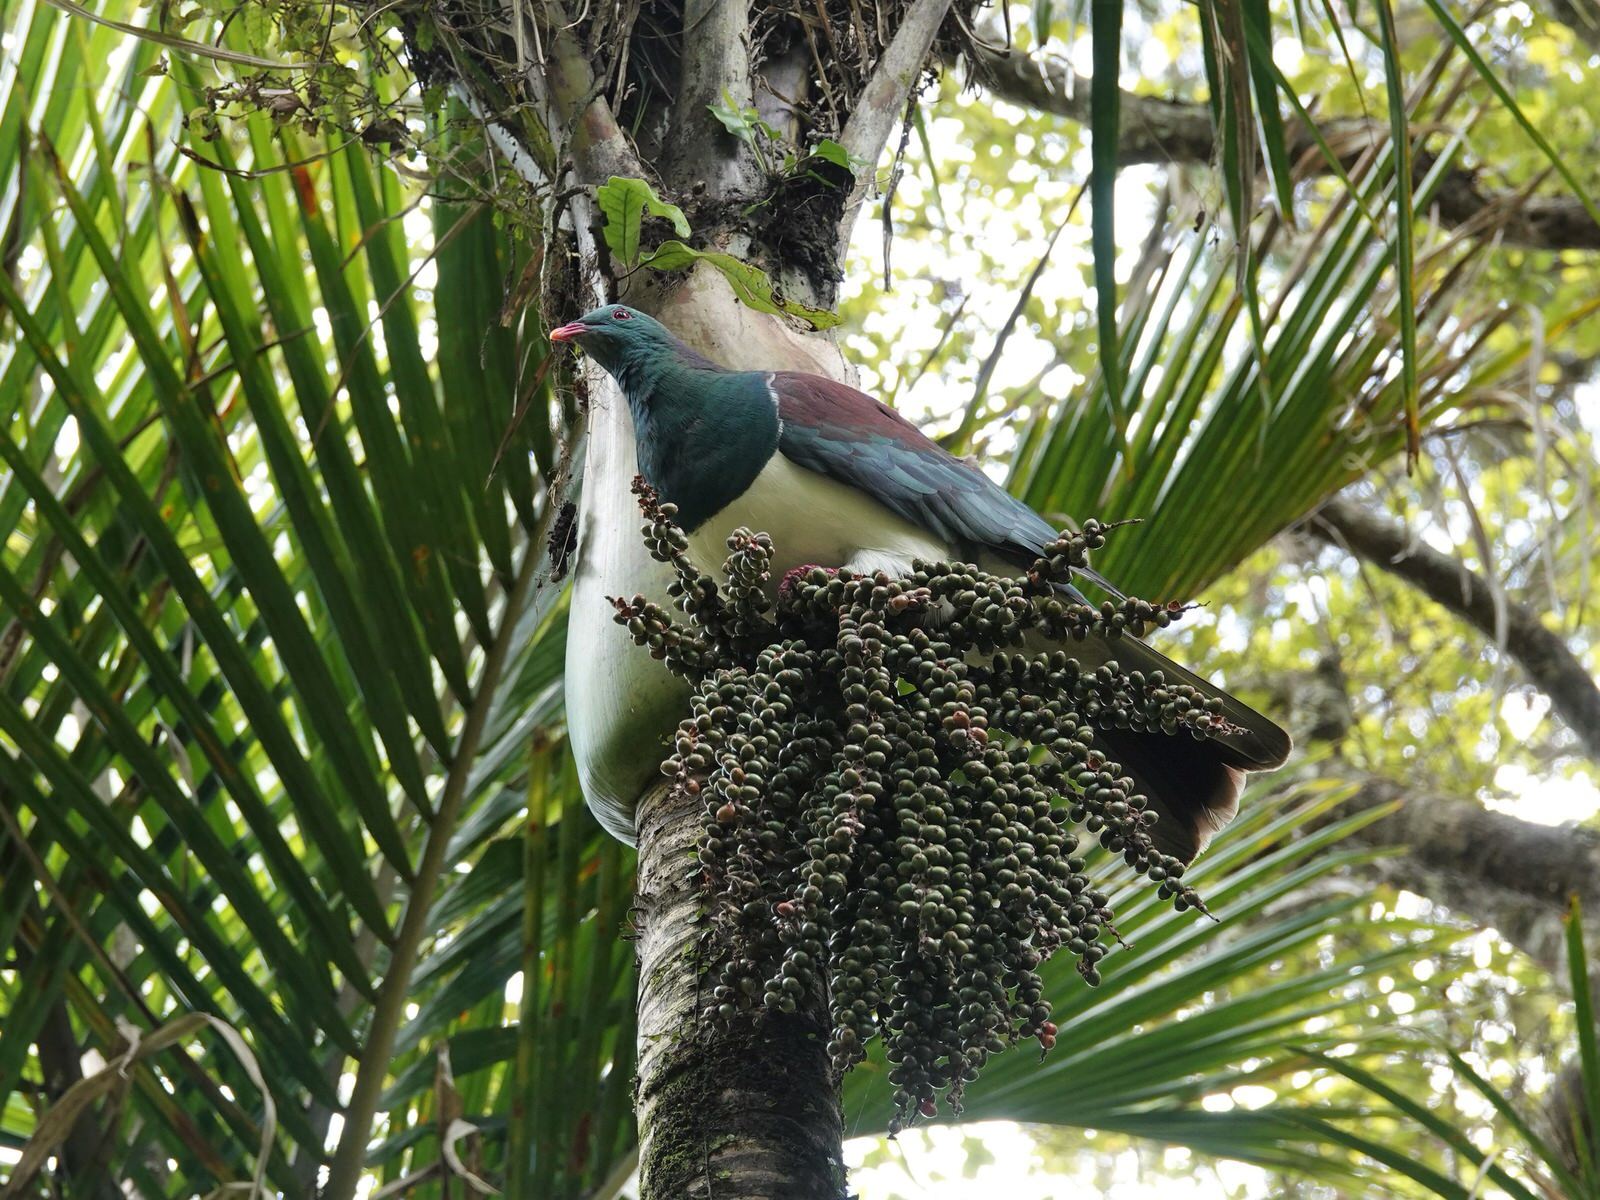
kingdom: Animalia
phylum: Chordata
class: Aves
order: Columbiformes
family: Columbidae
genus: Hemiphaga
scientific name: Hemiphaga novaeseelandiae
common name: New zealand pigeon
